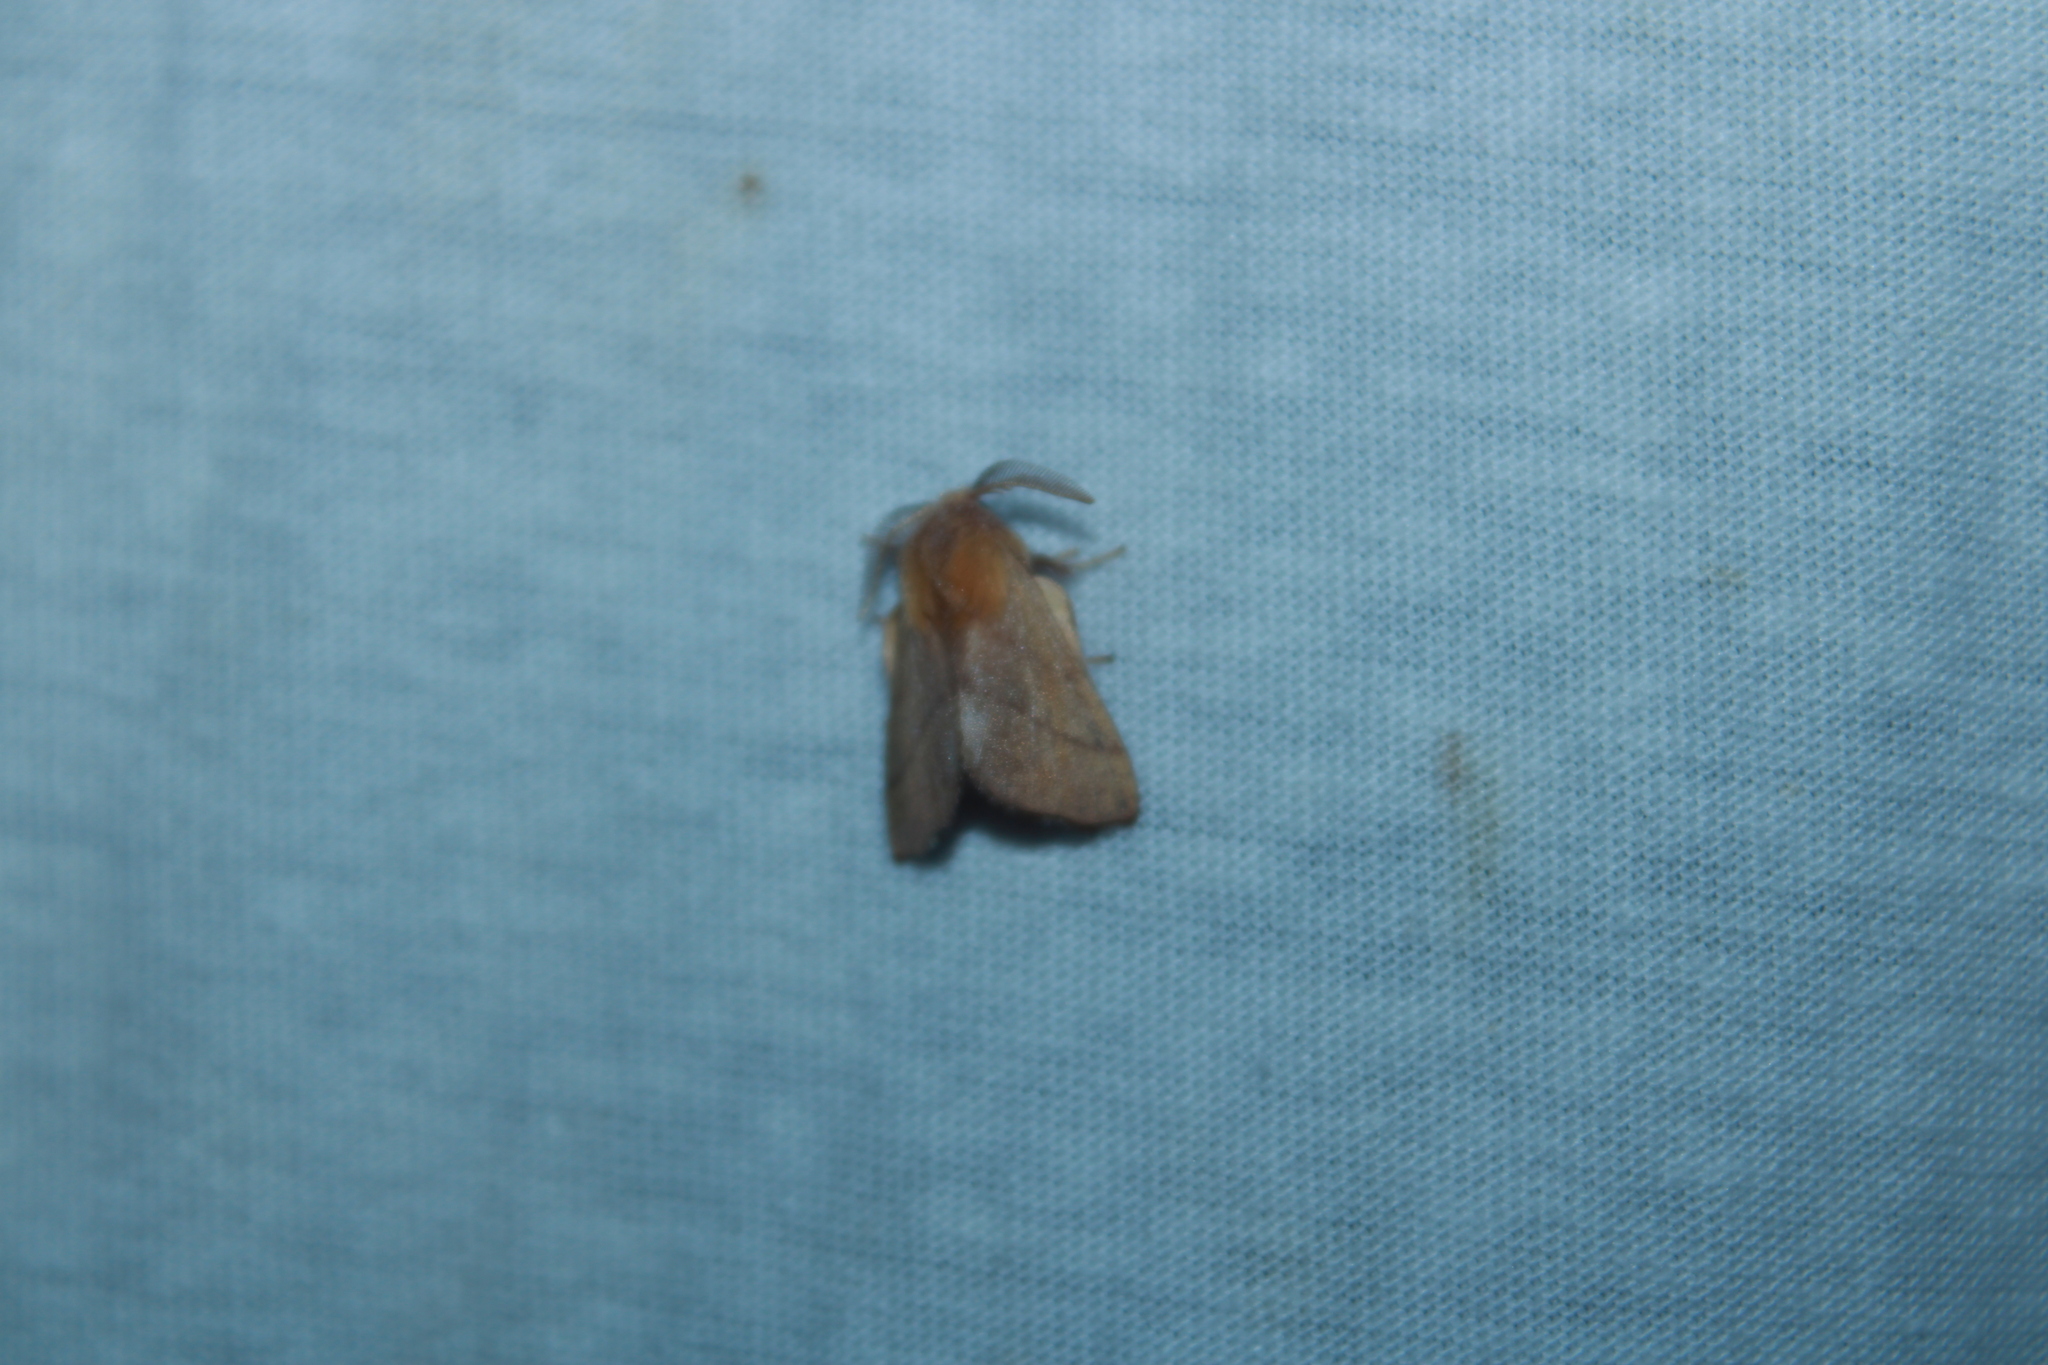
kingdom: Animalia
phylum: Arthropoda
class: Insecta
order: Lepidoptera
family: Lasiocampidae
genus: Malacosoma
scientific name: Malacosoma disstria
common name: Forest tent caterpillar
